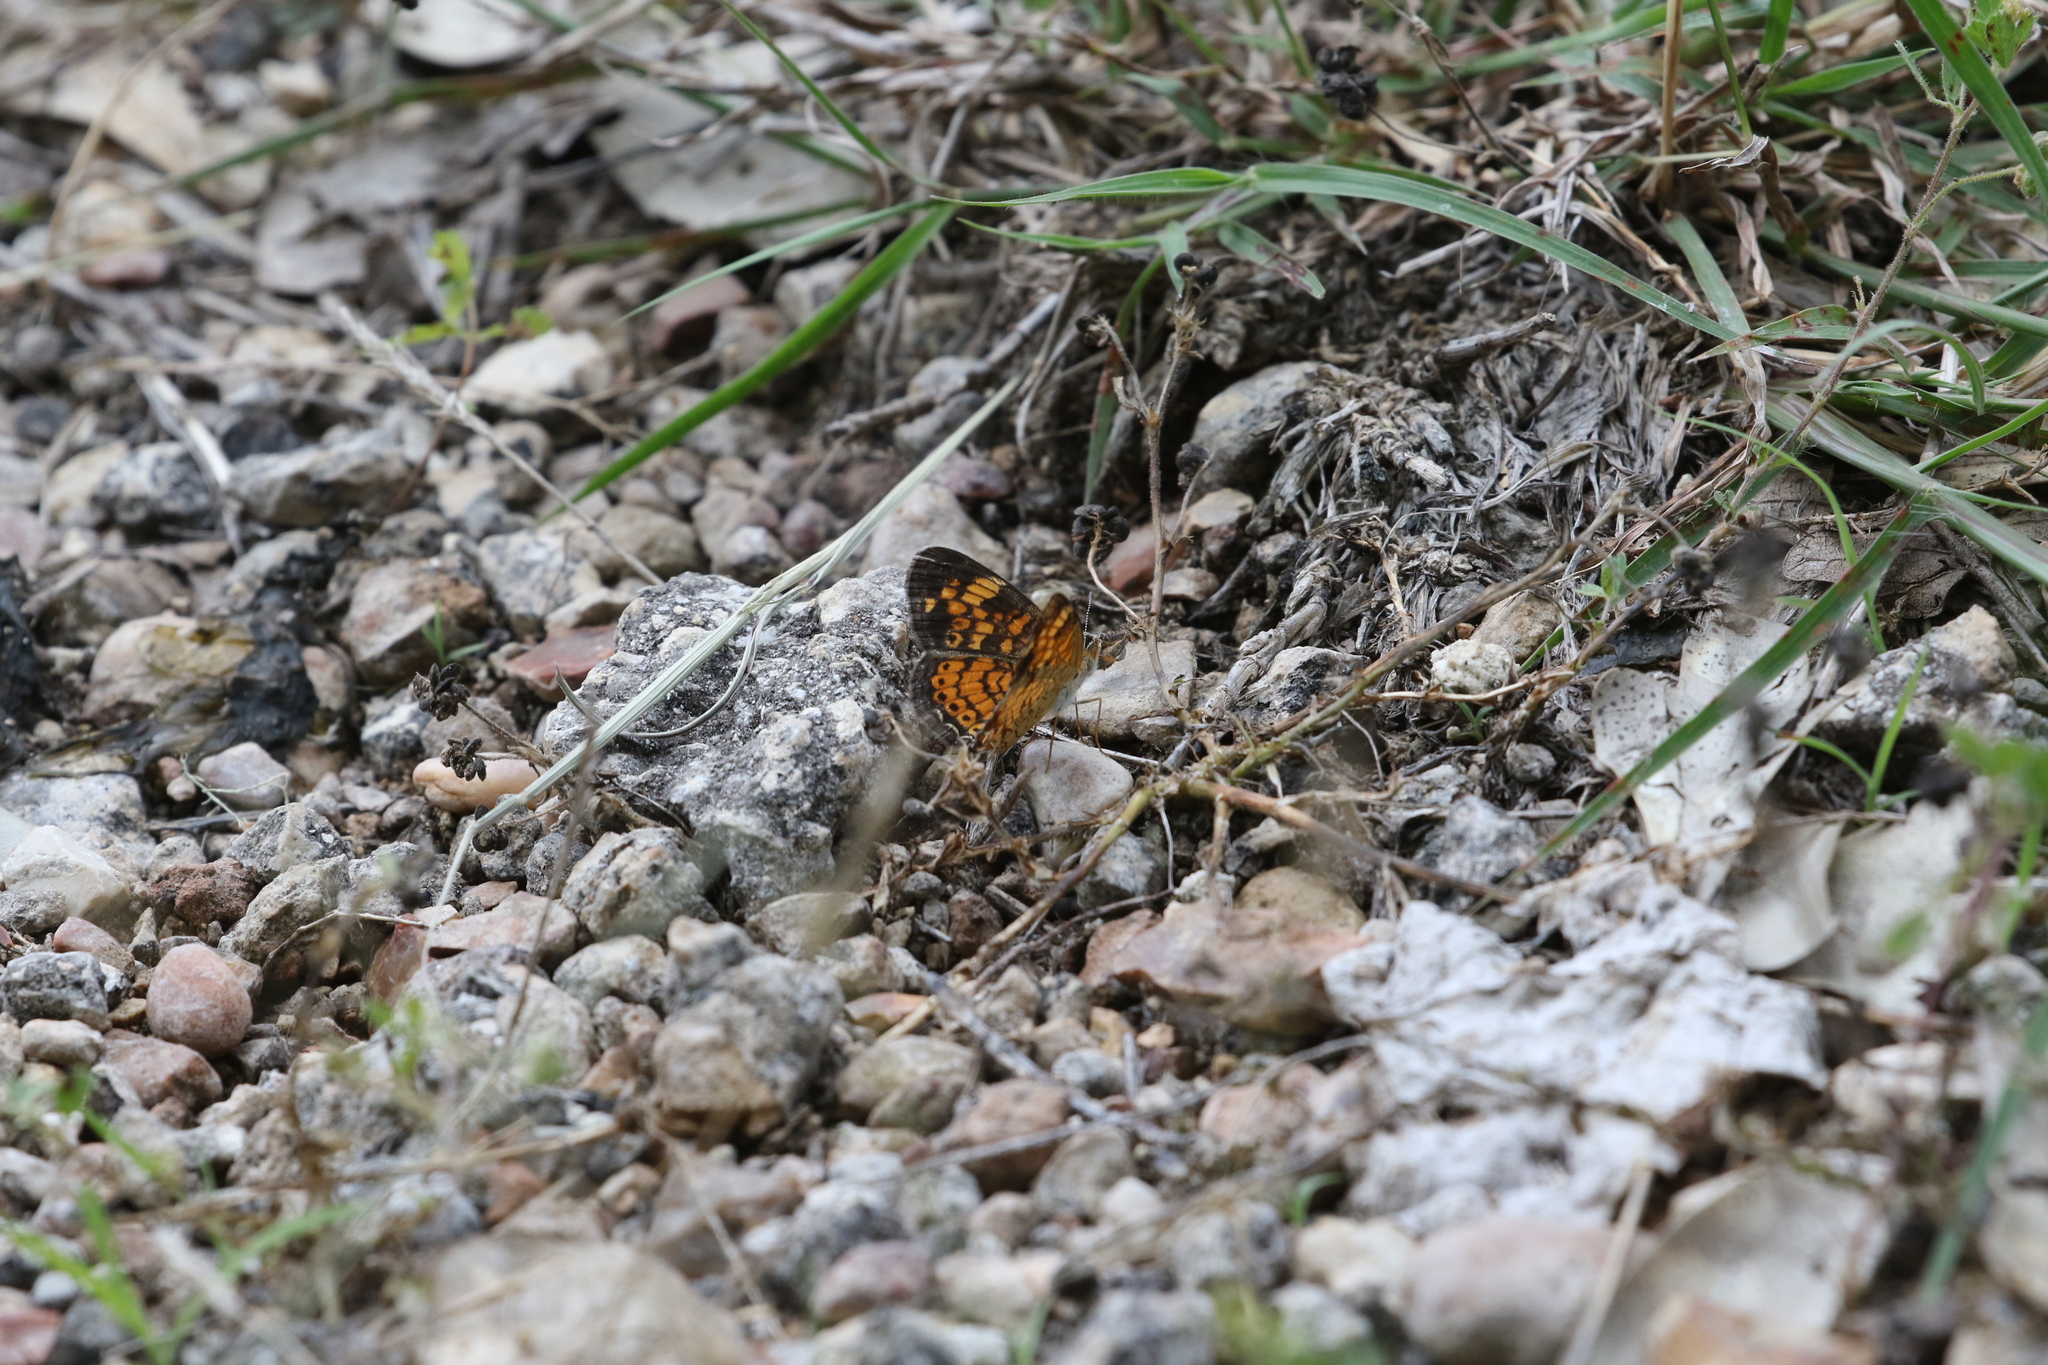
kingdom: Animalia
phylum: Arthropoda
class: Insecta
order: Lepidoptera
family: Nymphalidae
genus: Phyciodes
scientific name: Phyciodes tharos
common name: Pearl crescent
